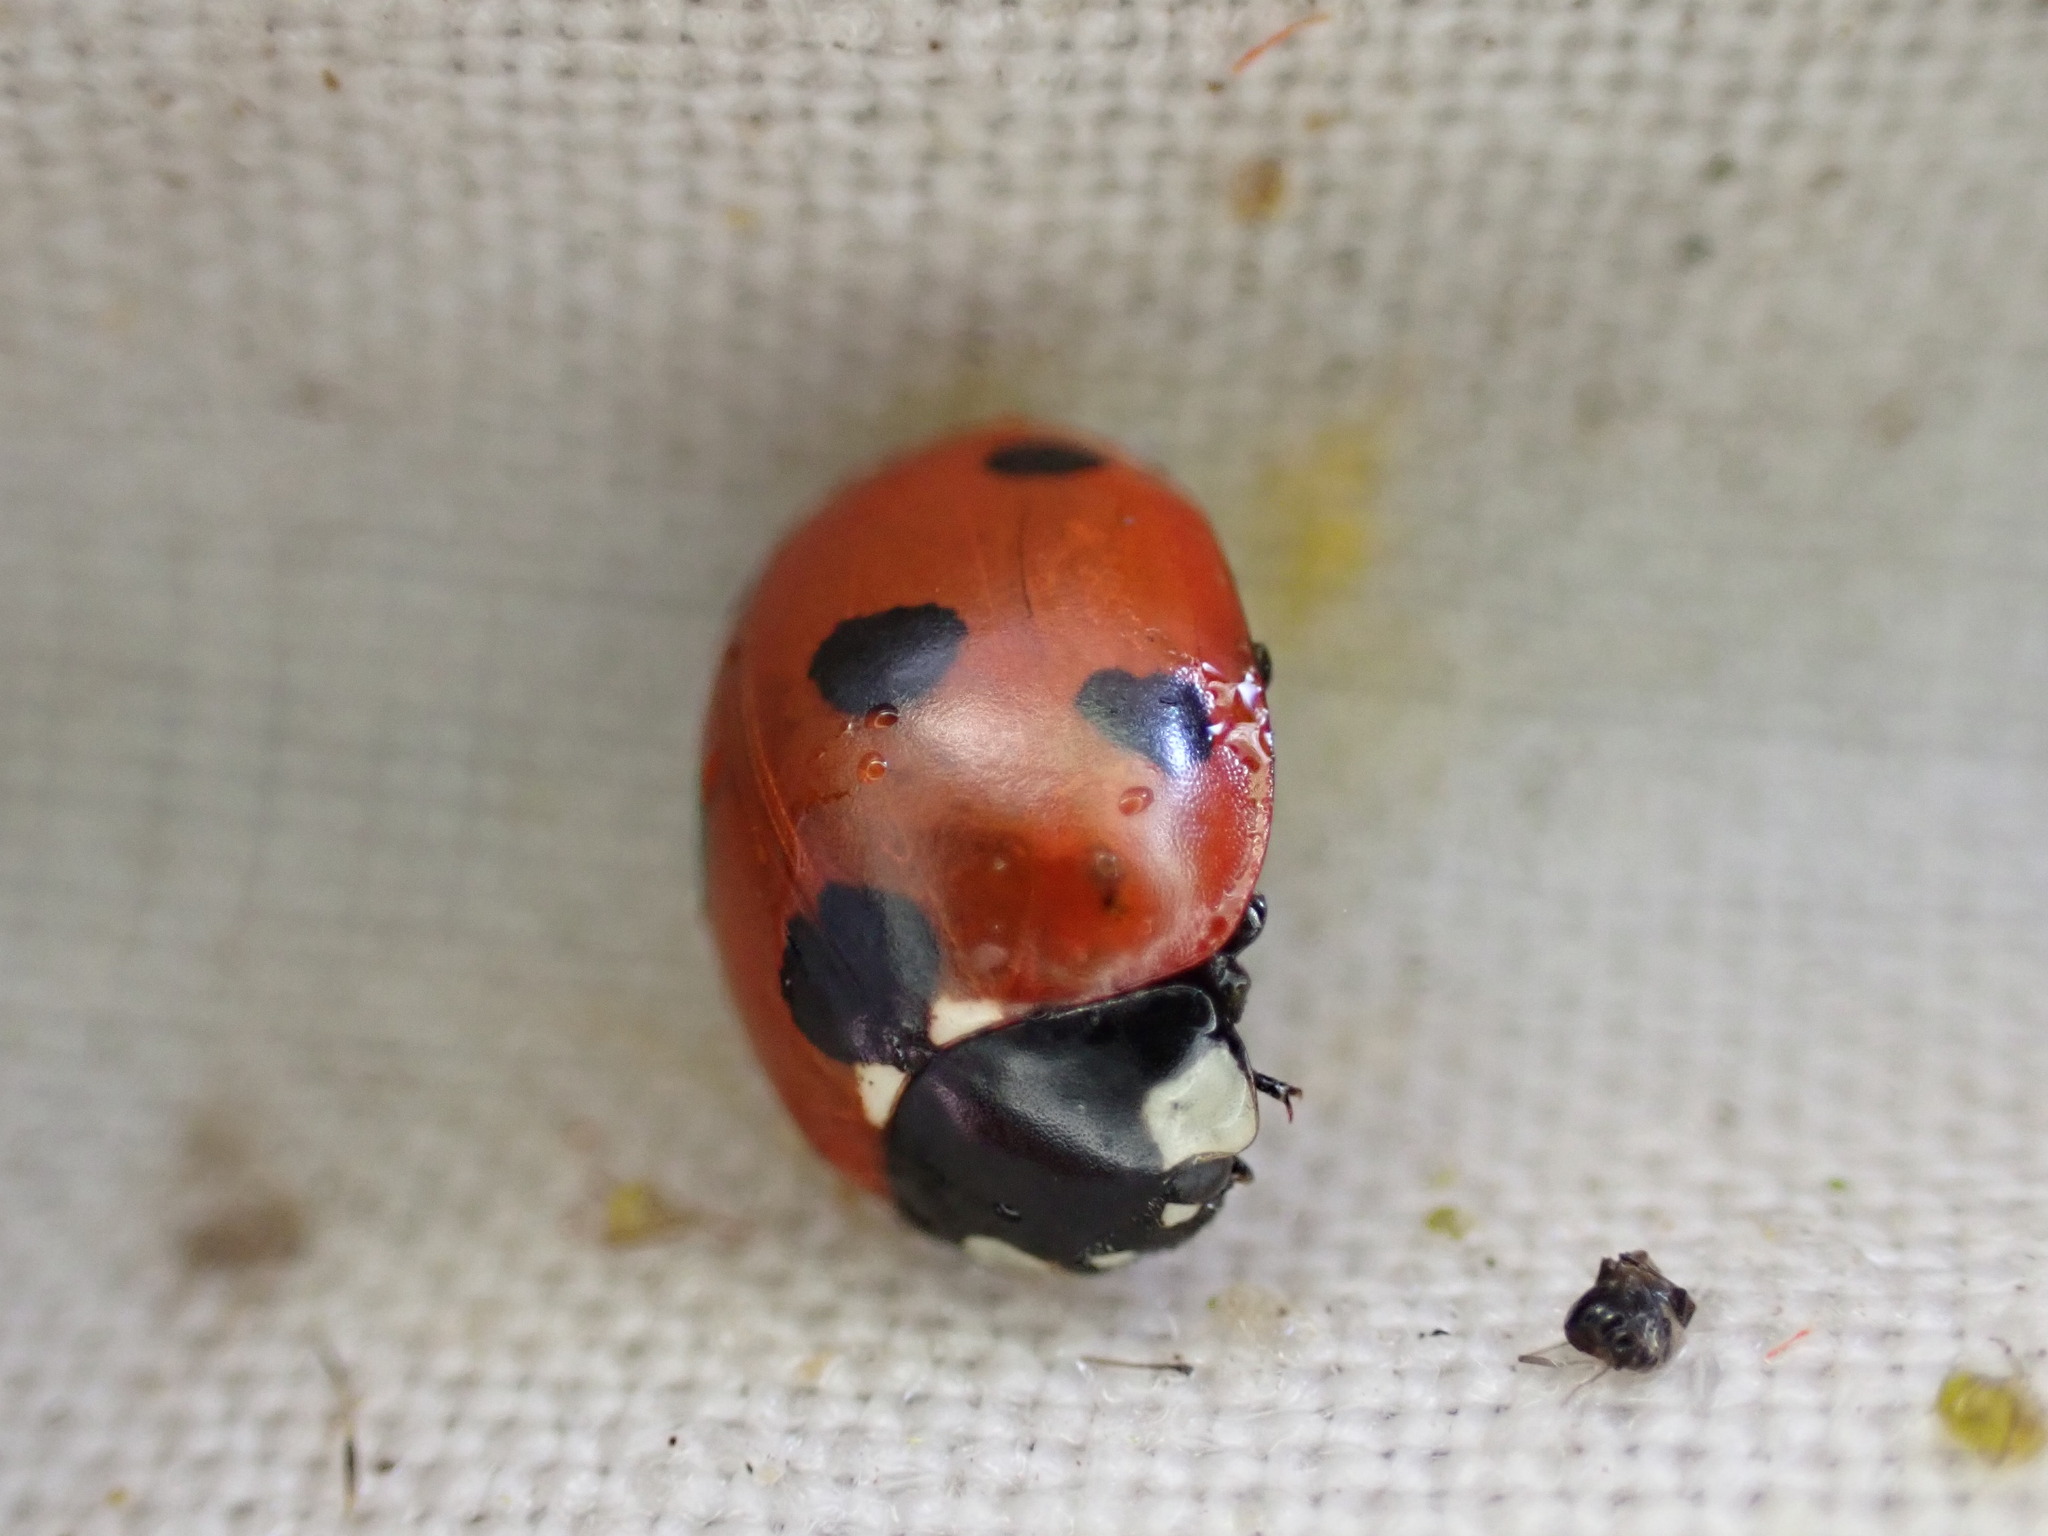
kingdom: Animalia
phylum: Arthropoda
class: Insecta
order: Coleoptera
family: Coccinellidae
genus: Coccinella
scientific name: Coccinella septempunctata
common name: Sevenspotted lady beetle
